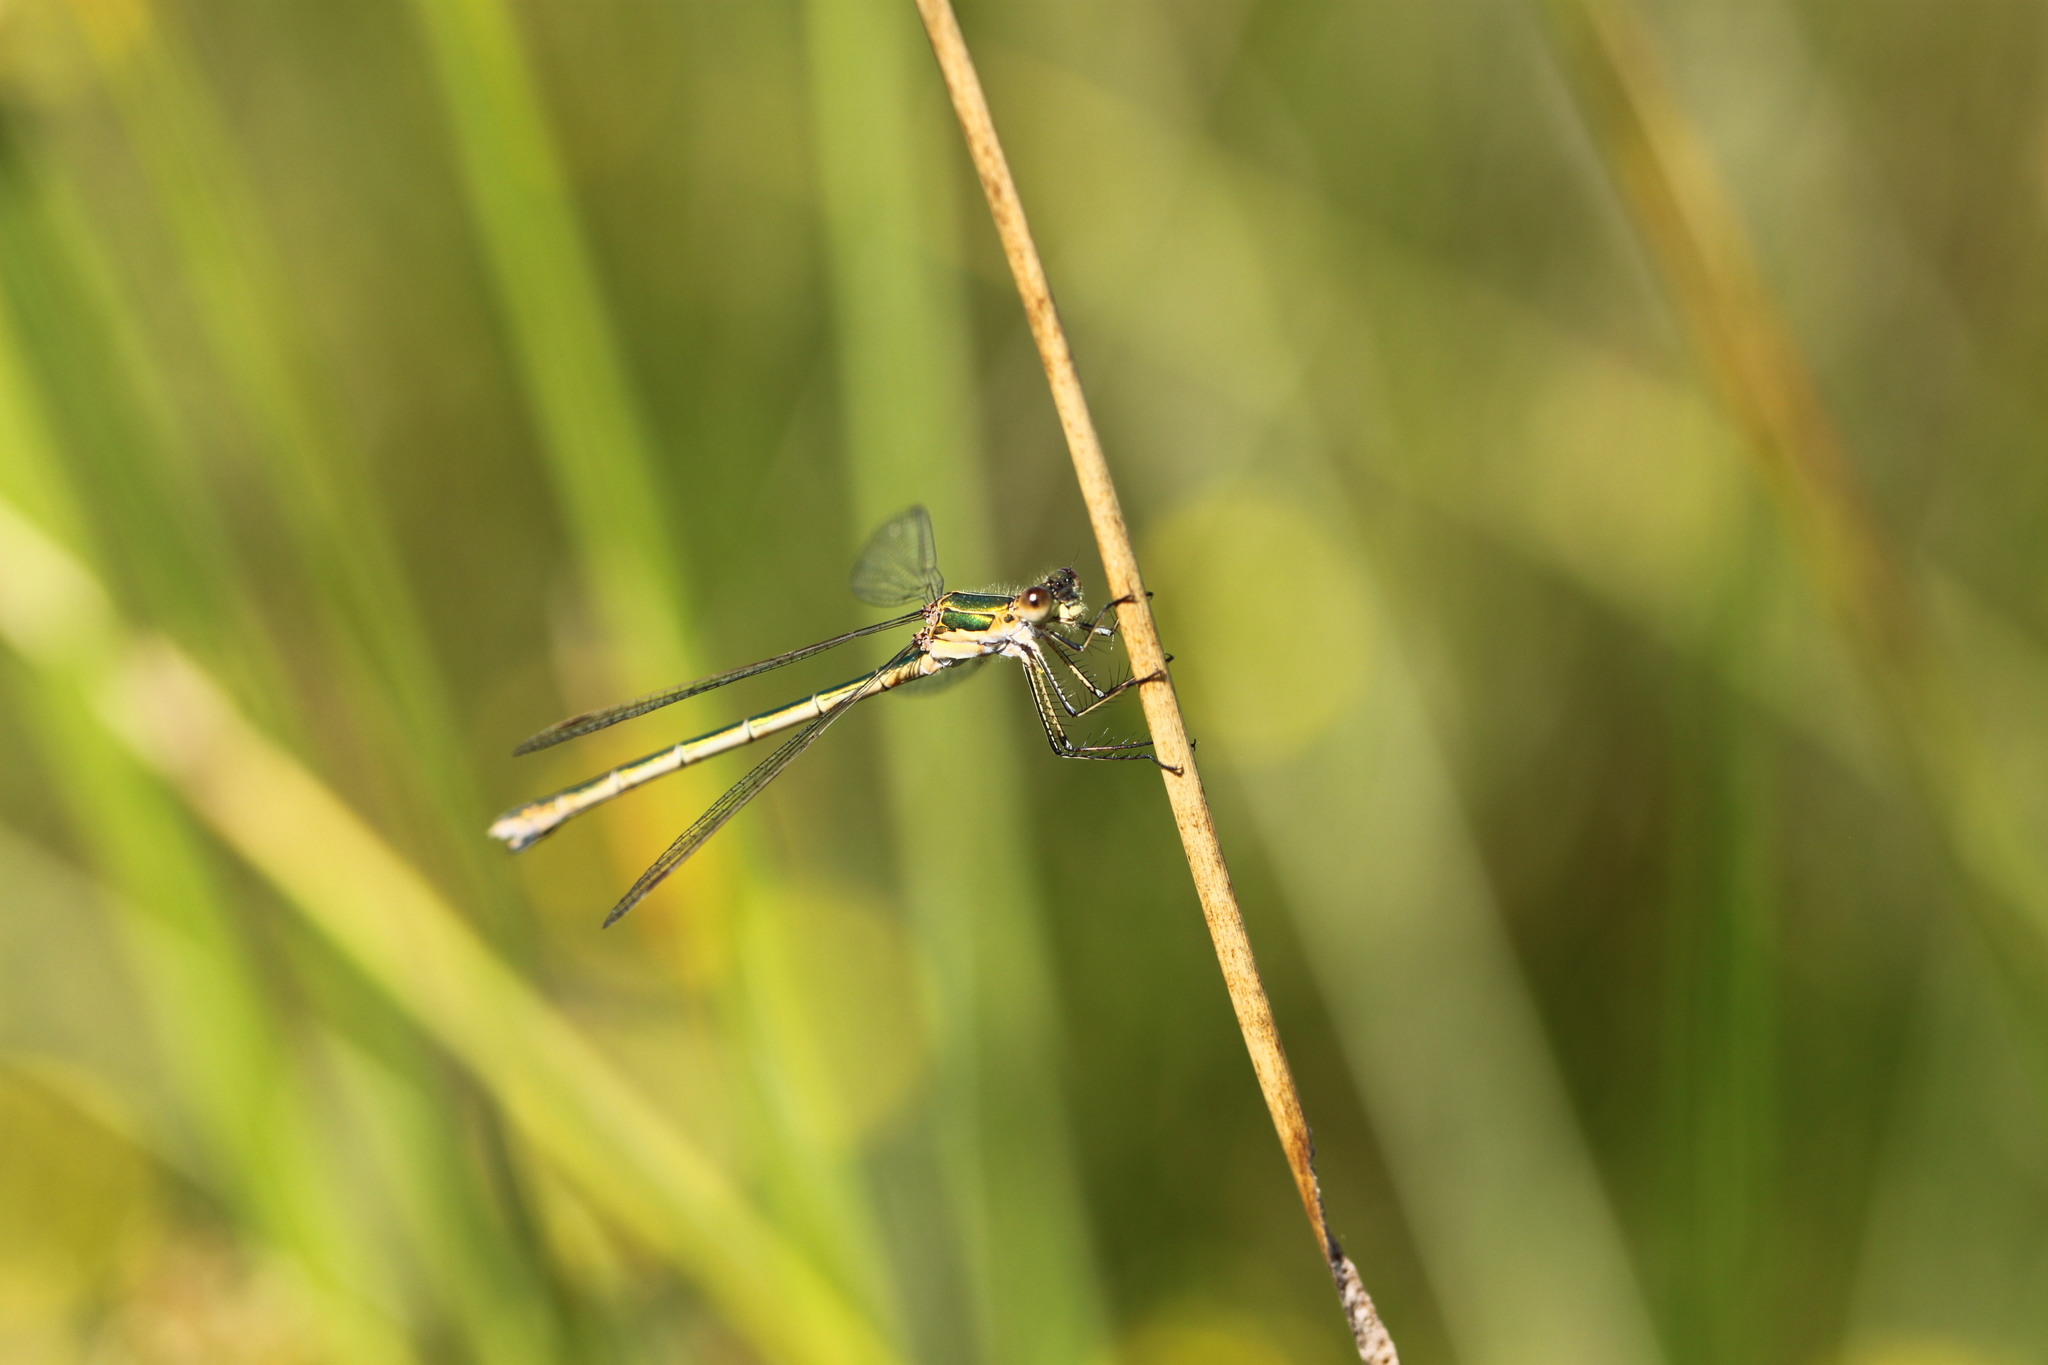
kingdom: Animalia
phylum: Arthropoda
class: Insecta
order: Odonata
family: Lestidae
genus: Lestes
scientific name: Lestes sponsa
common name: Common spreadwing
